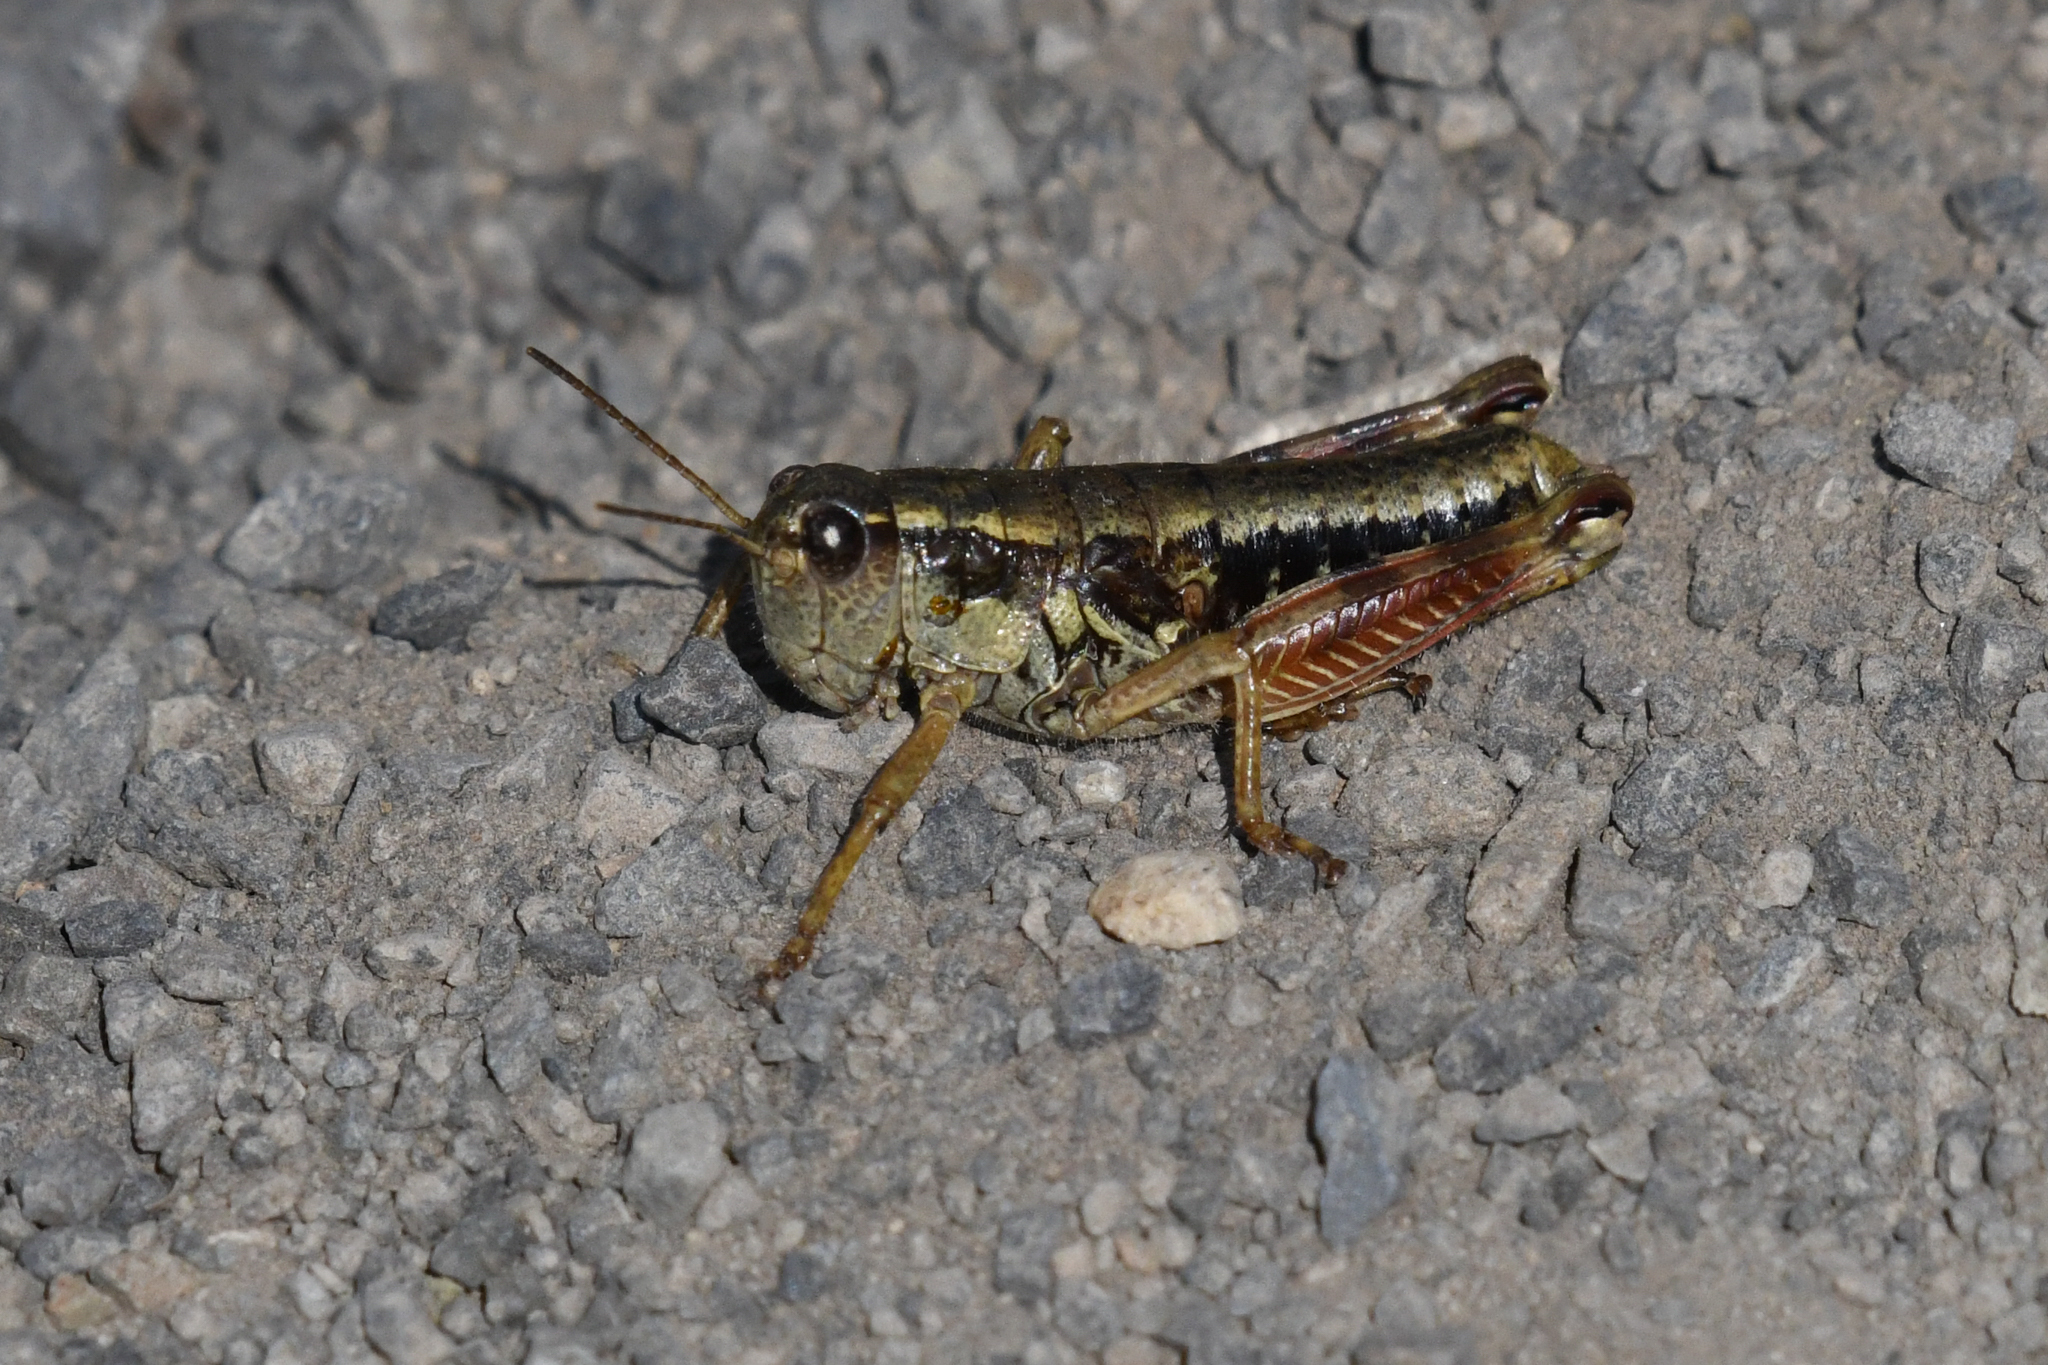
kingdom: Animalia
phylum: Arthropoda
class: Insecta
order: Orthoptera
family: Acrididae
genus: Buckellacris
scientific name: Buckellacris chilcotinae
